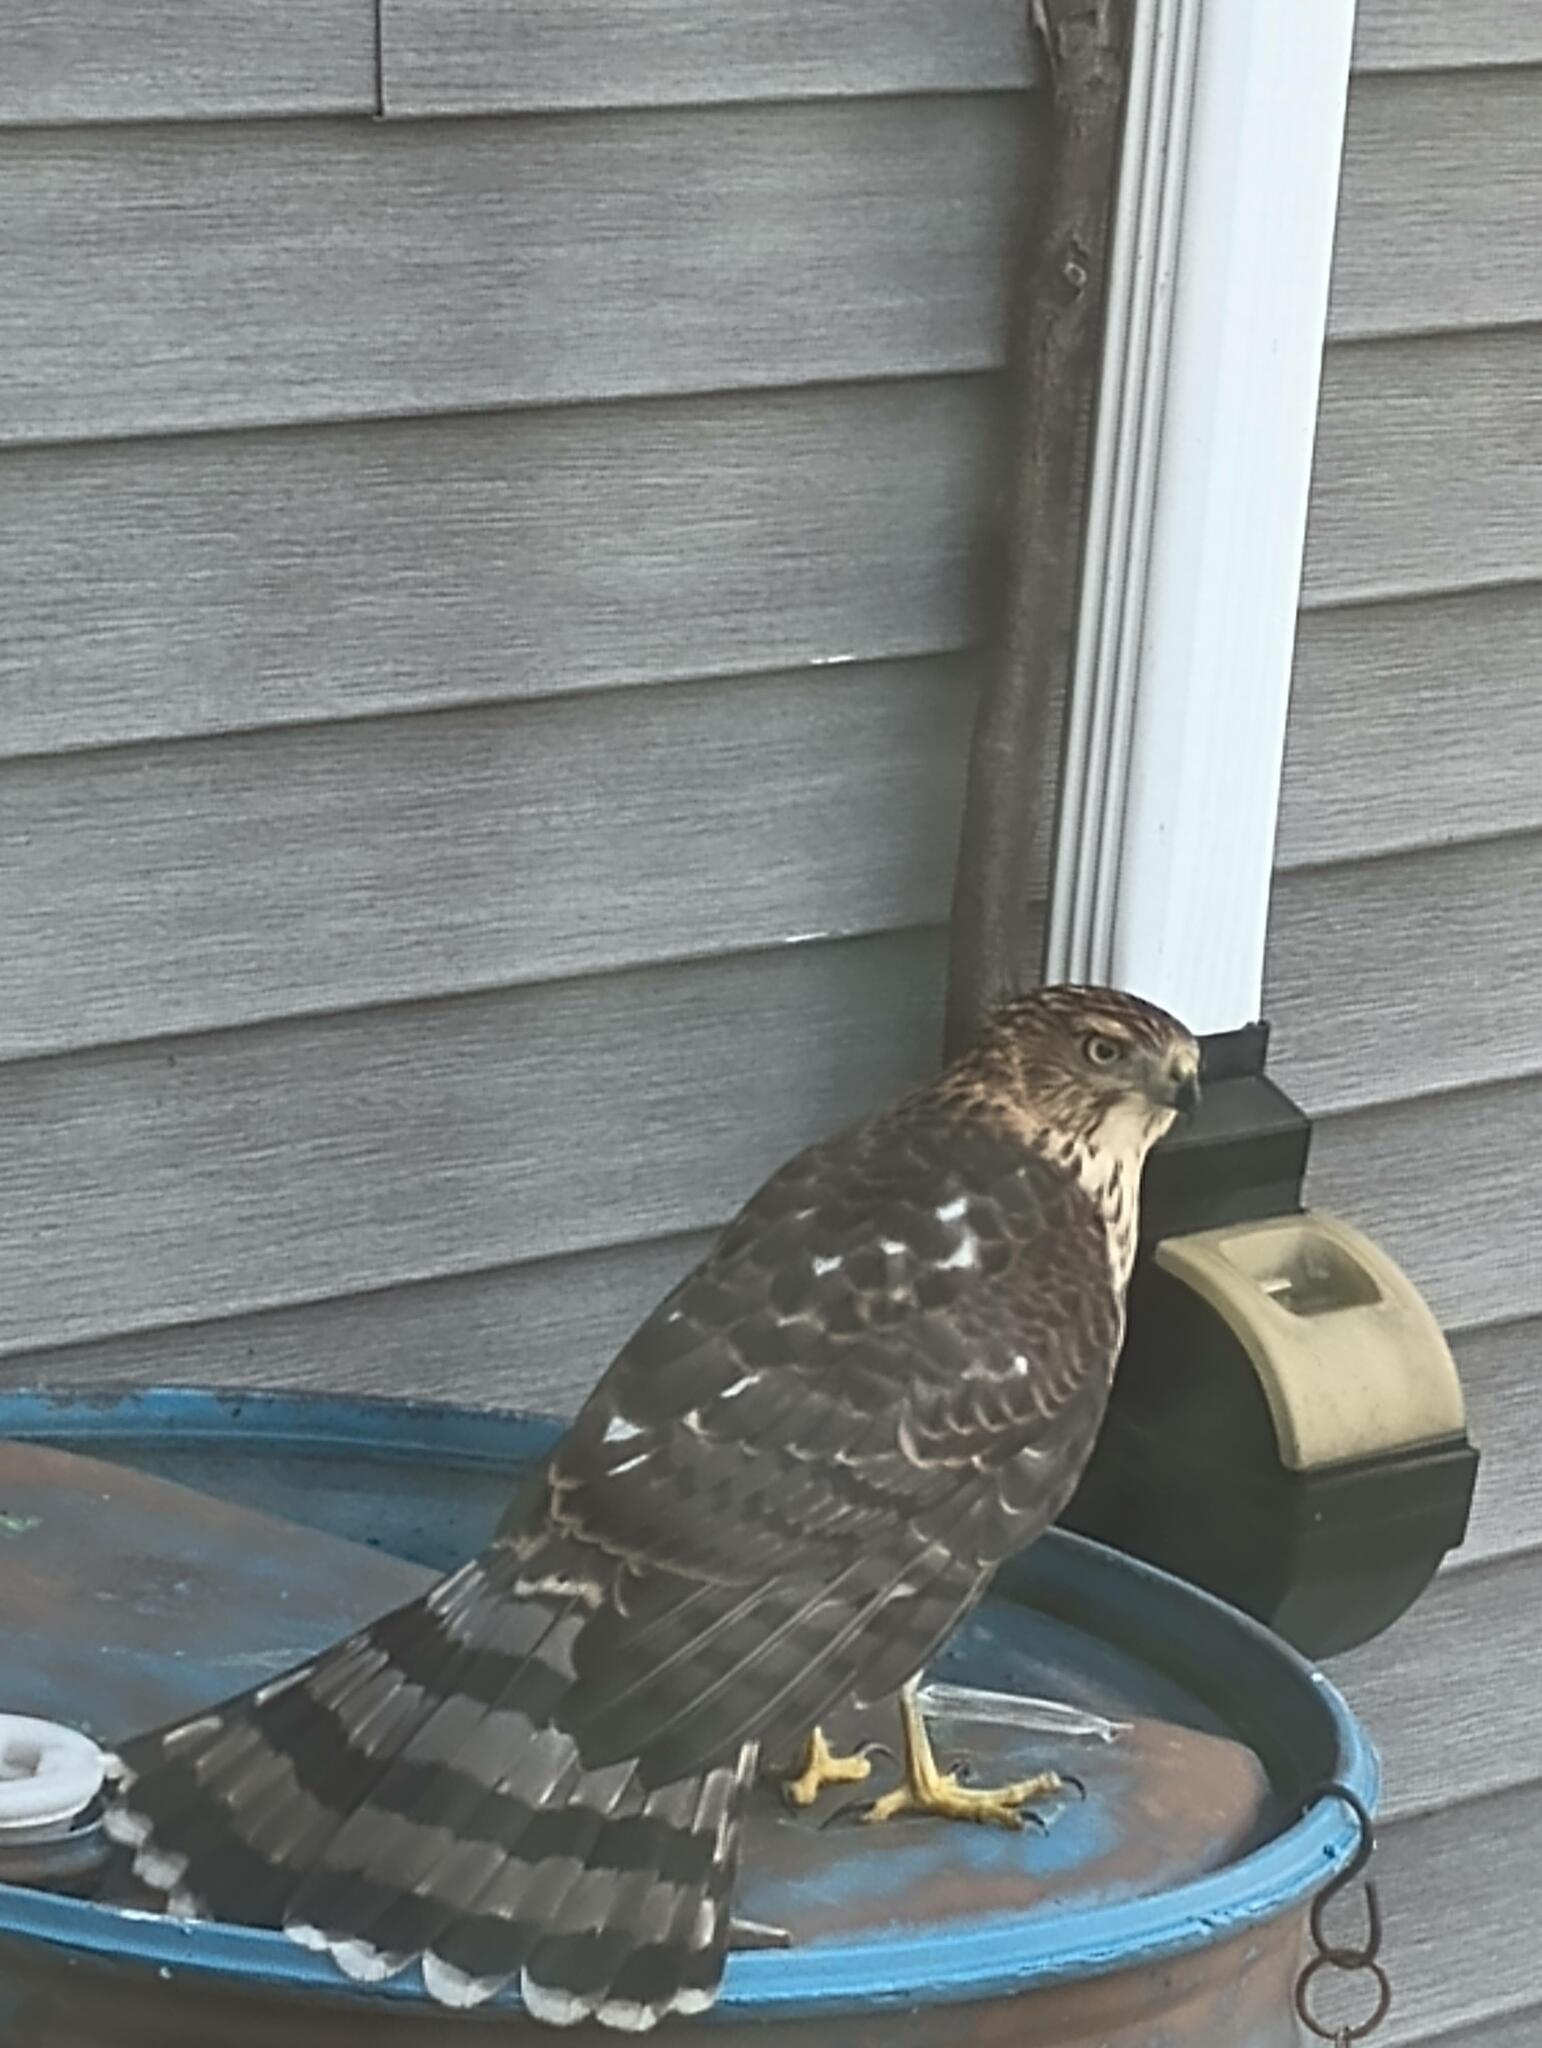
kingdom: Animalia
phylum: Chordata
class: Aves
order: Accipitriformes
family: Accipitridae
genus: Accipiter
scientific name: Accipiter cooperii
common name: Cooper's hawk
